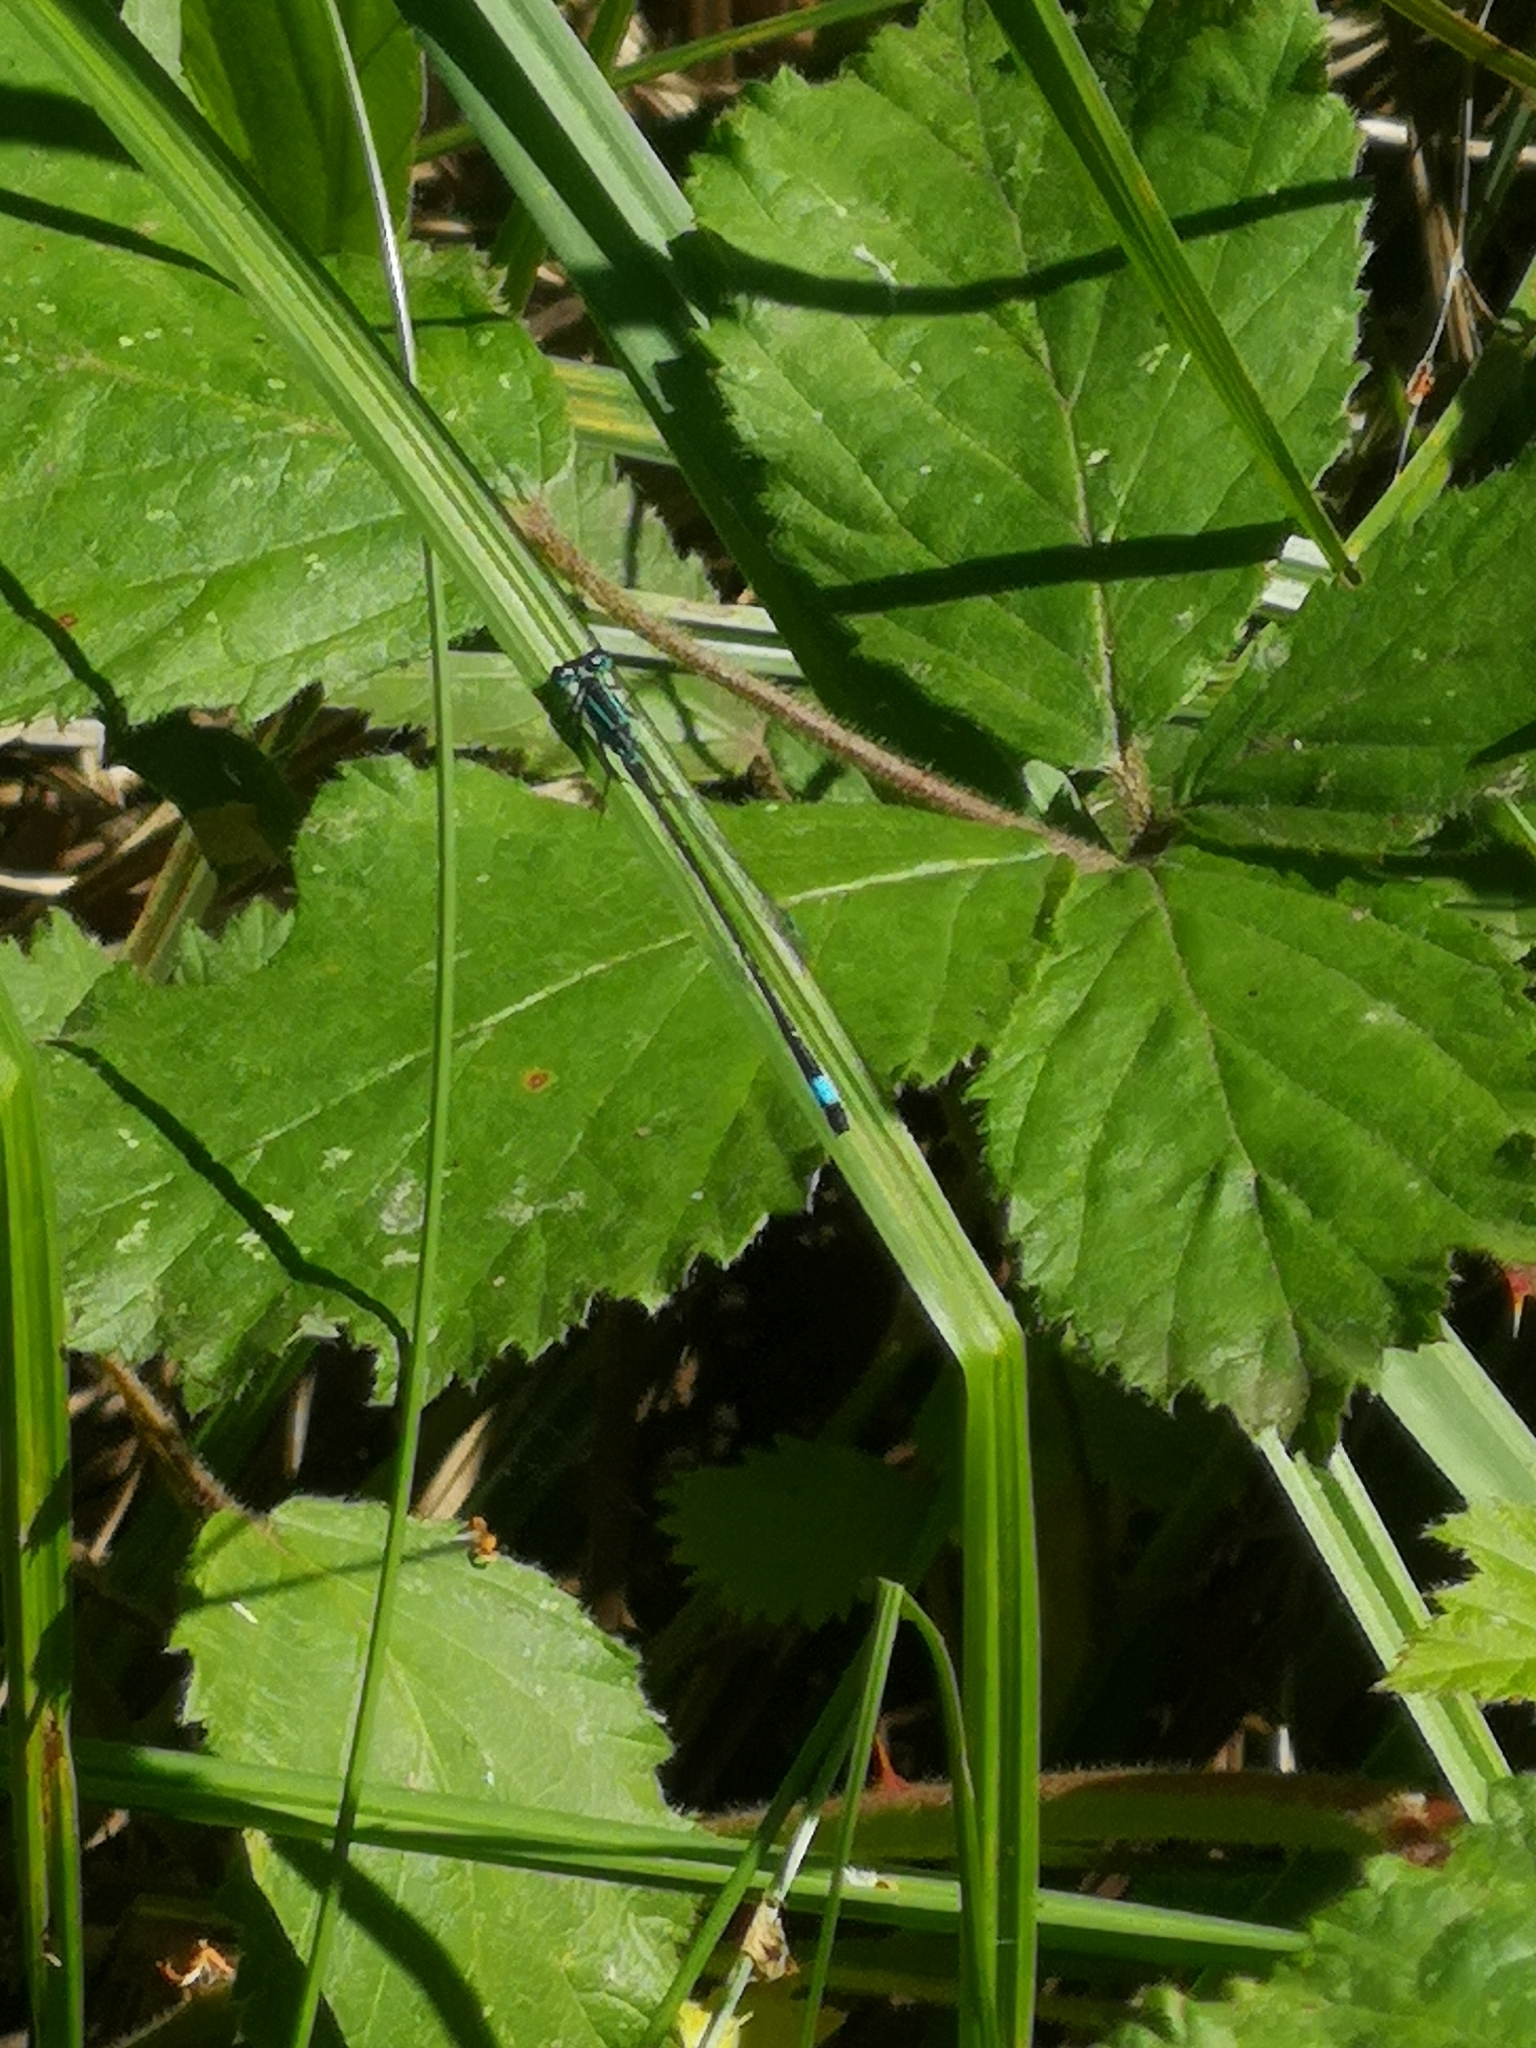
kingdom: Animalia
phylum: Arthropoda
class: Insecta
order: Odonata
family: Coenagrionidae
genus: Ischnura
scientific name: Ischnura elegans
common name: Blue-tailed damselfly
